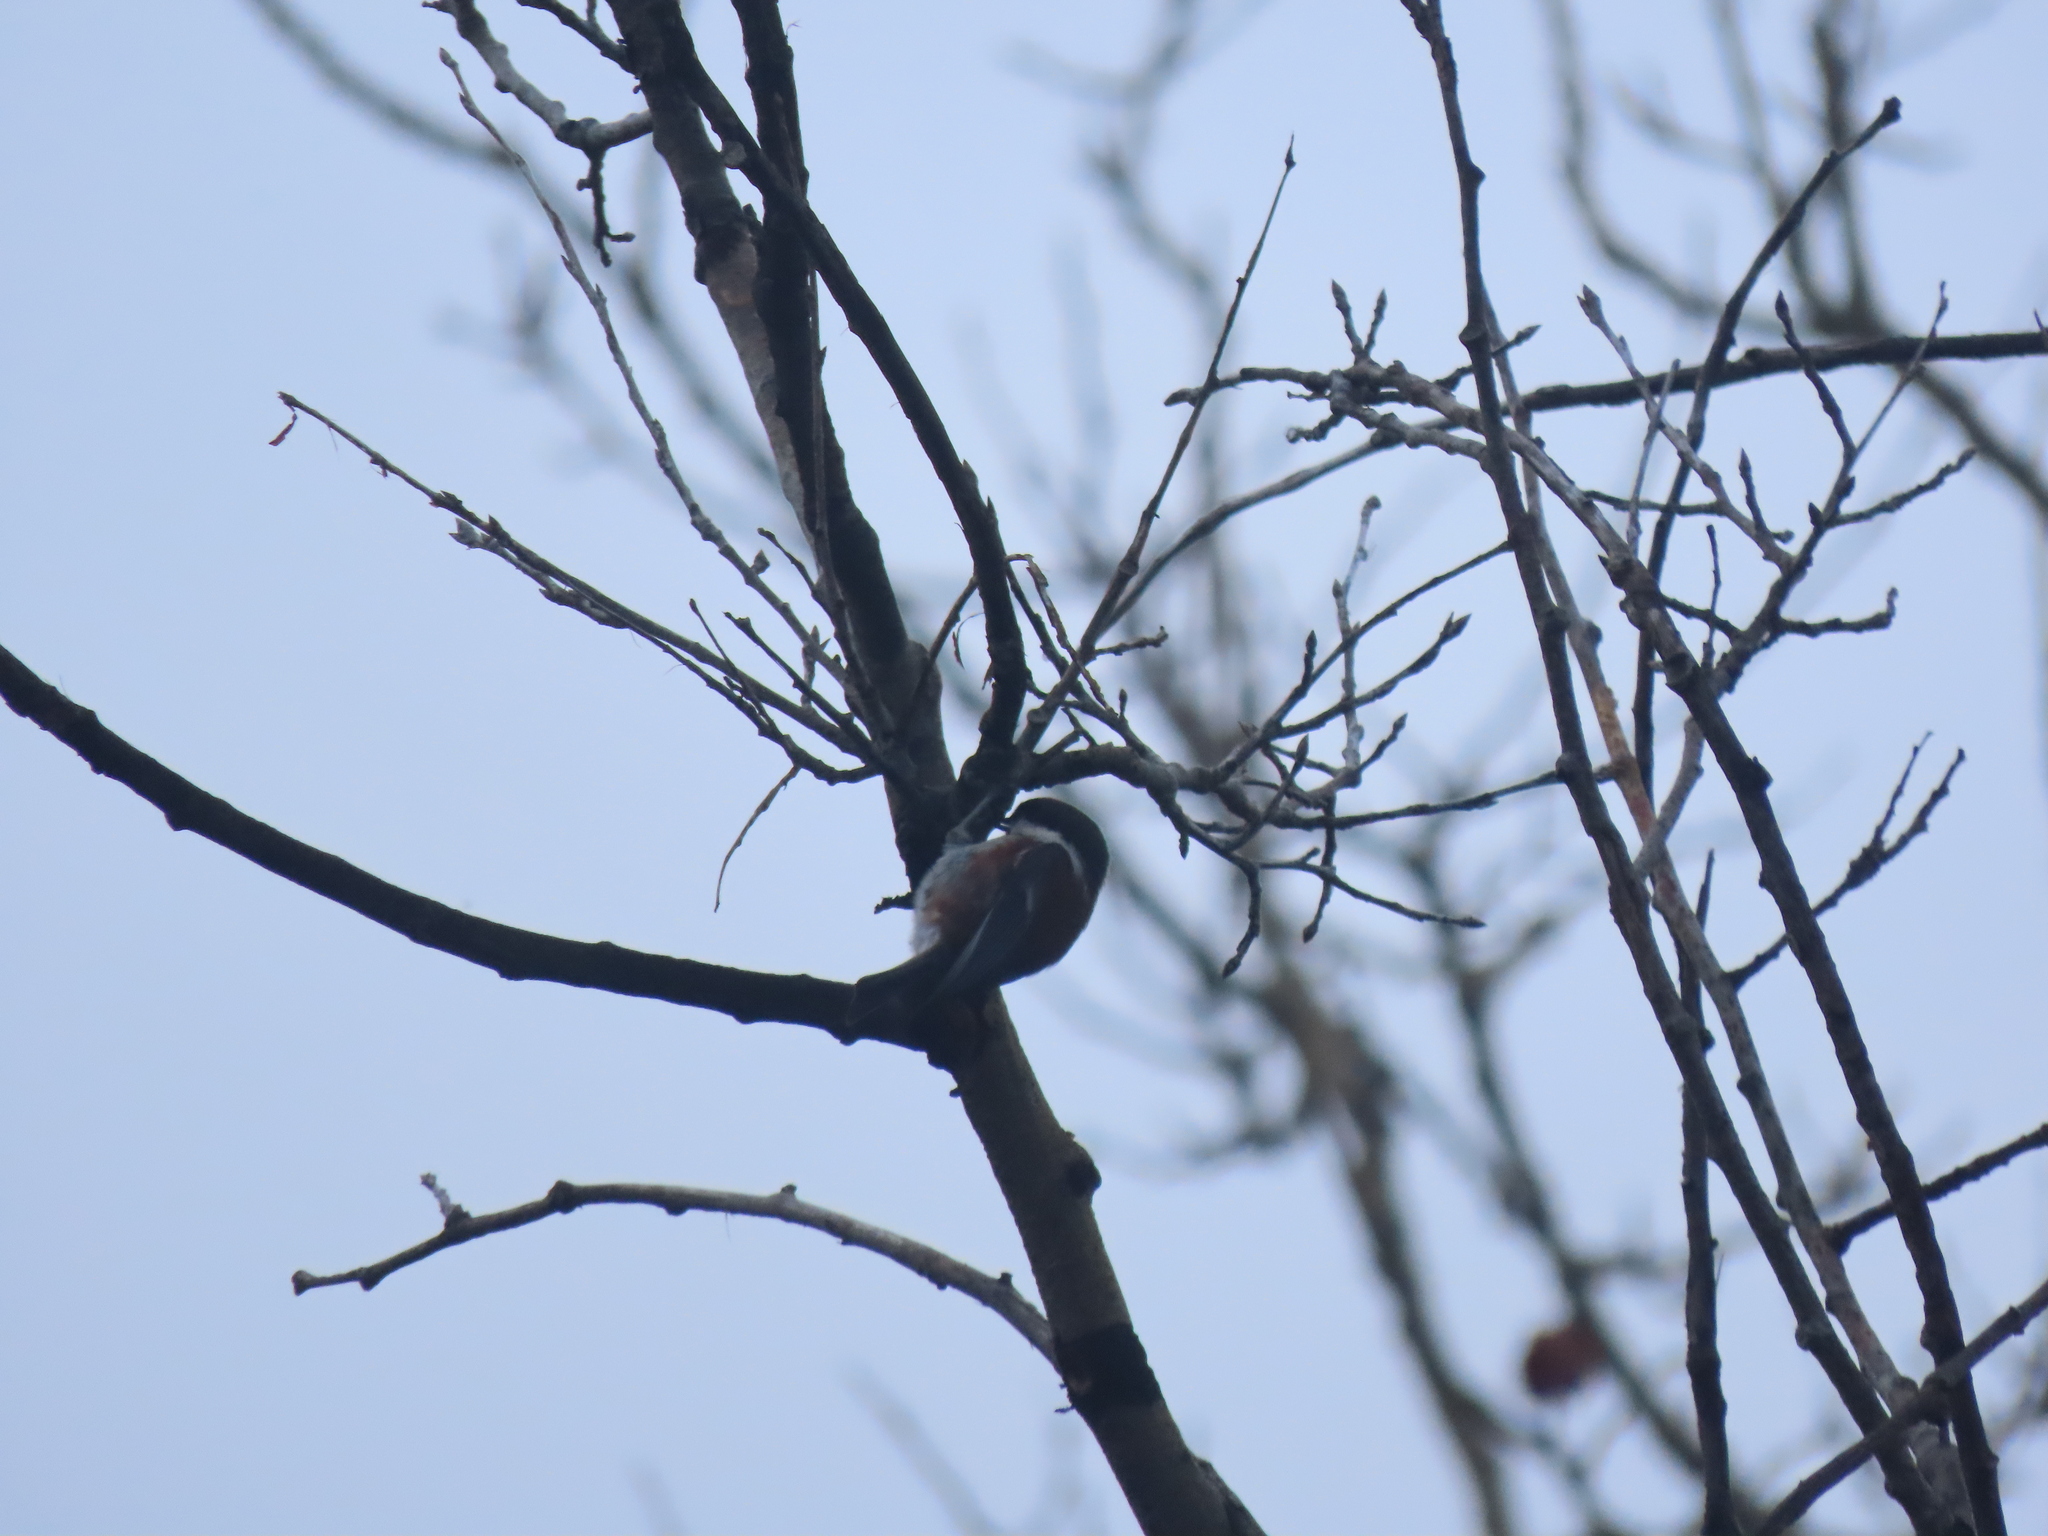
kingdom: Animalia
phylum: Chordata
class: Aves
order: Passeriformes
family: Paridae
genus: Poecile
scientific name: Poecile rufescens
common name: Chestnut-backed chickadee
